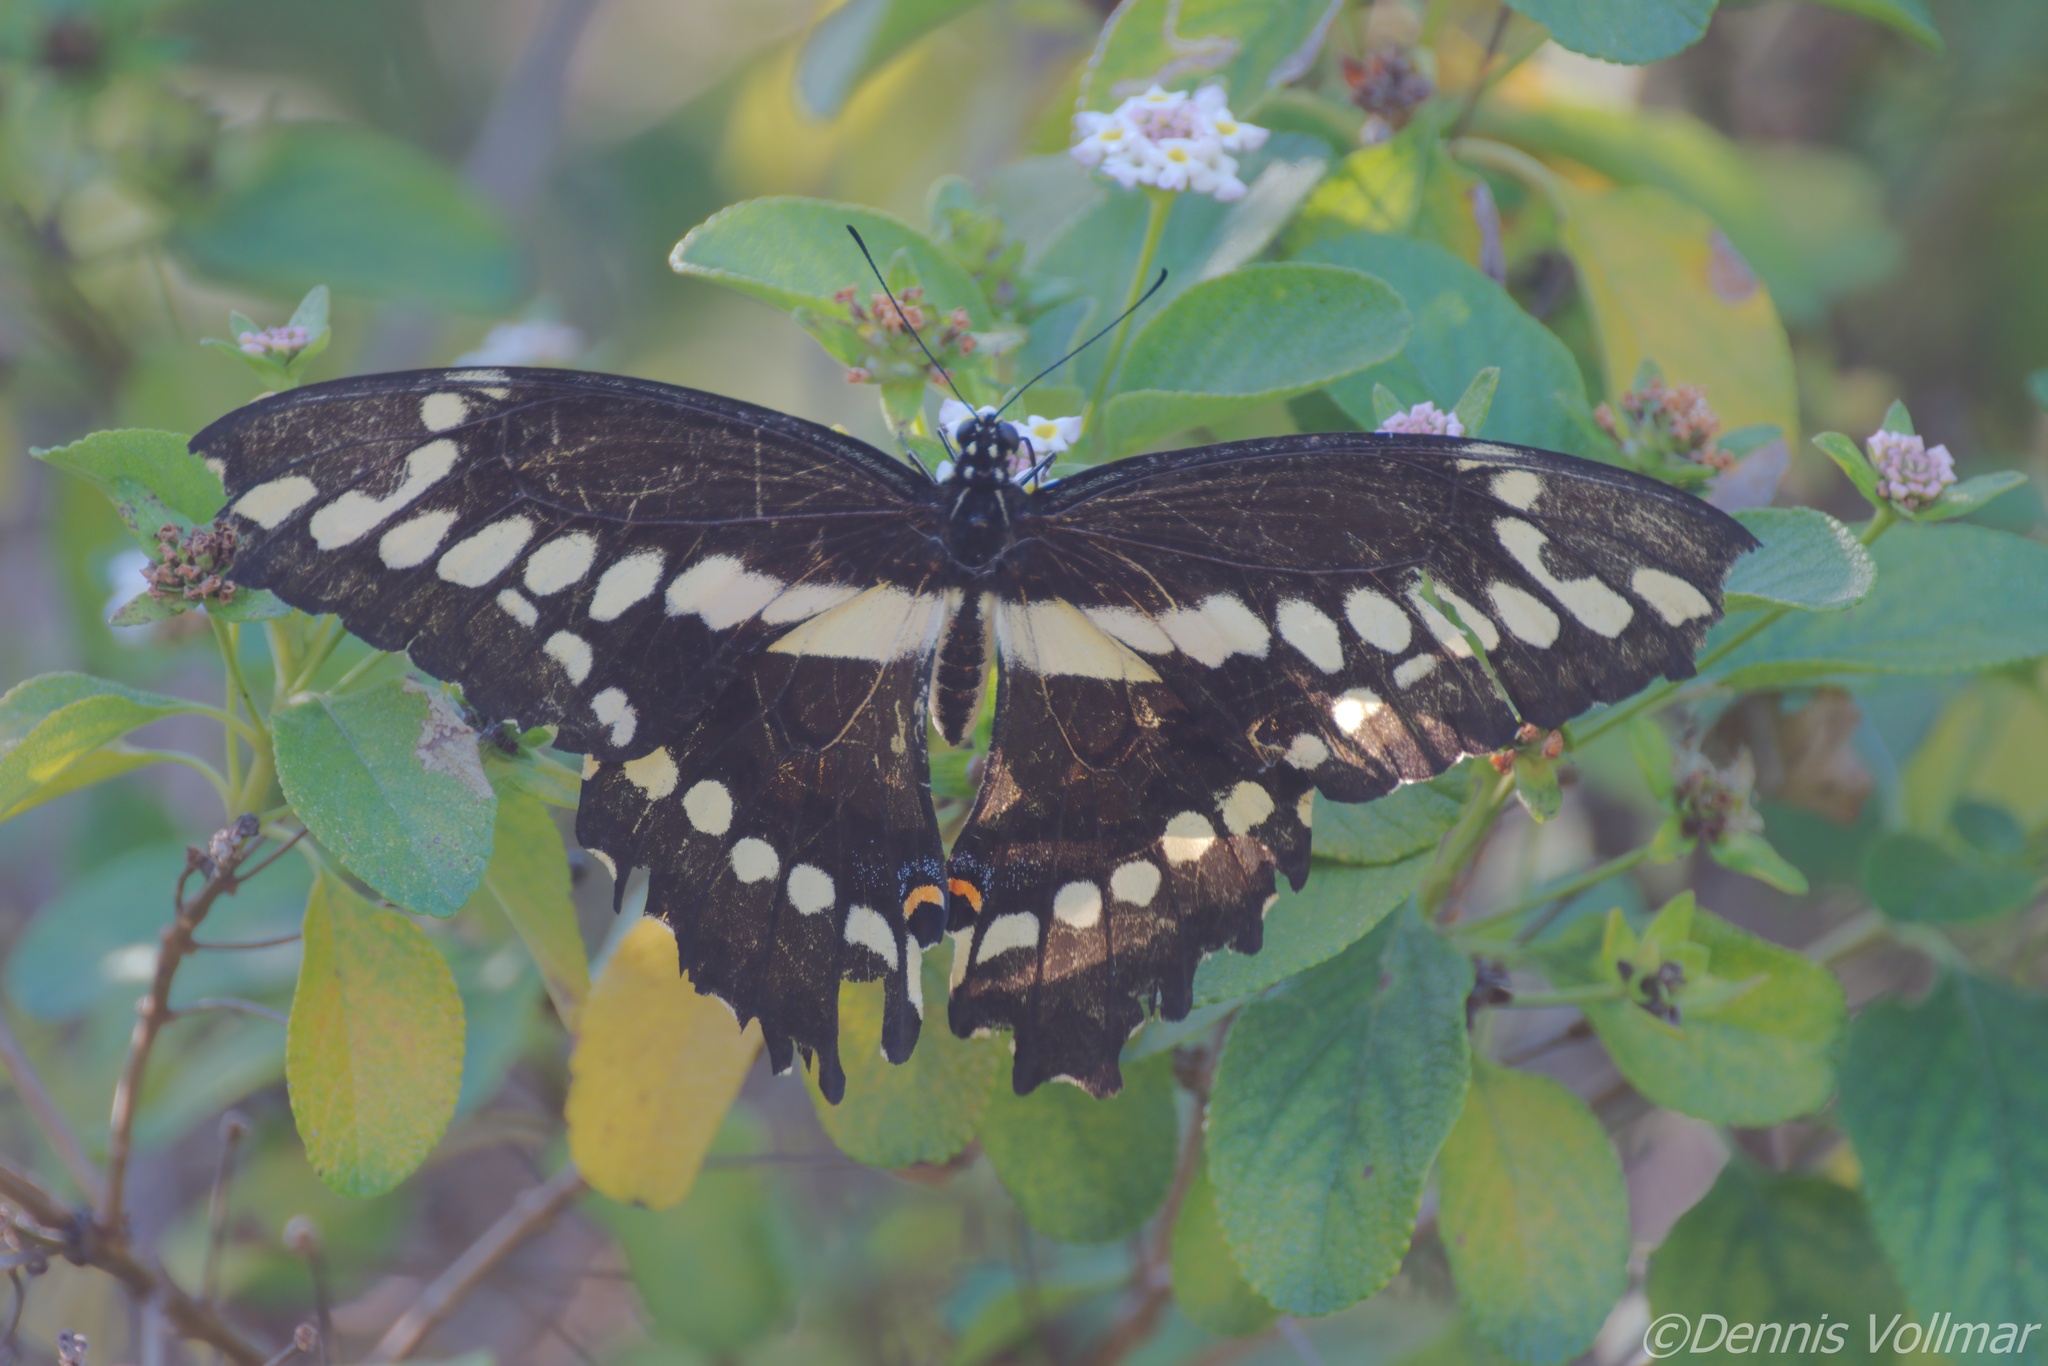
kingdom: Animalia
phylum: Arthropoda
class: Insecta
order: Lepidoptera
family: Papilionidae
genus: Papilio
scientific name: Papilio cresphontes
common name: Giant swallowtail
